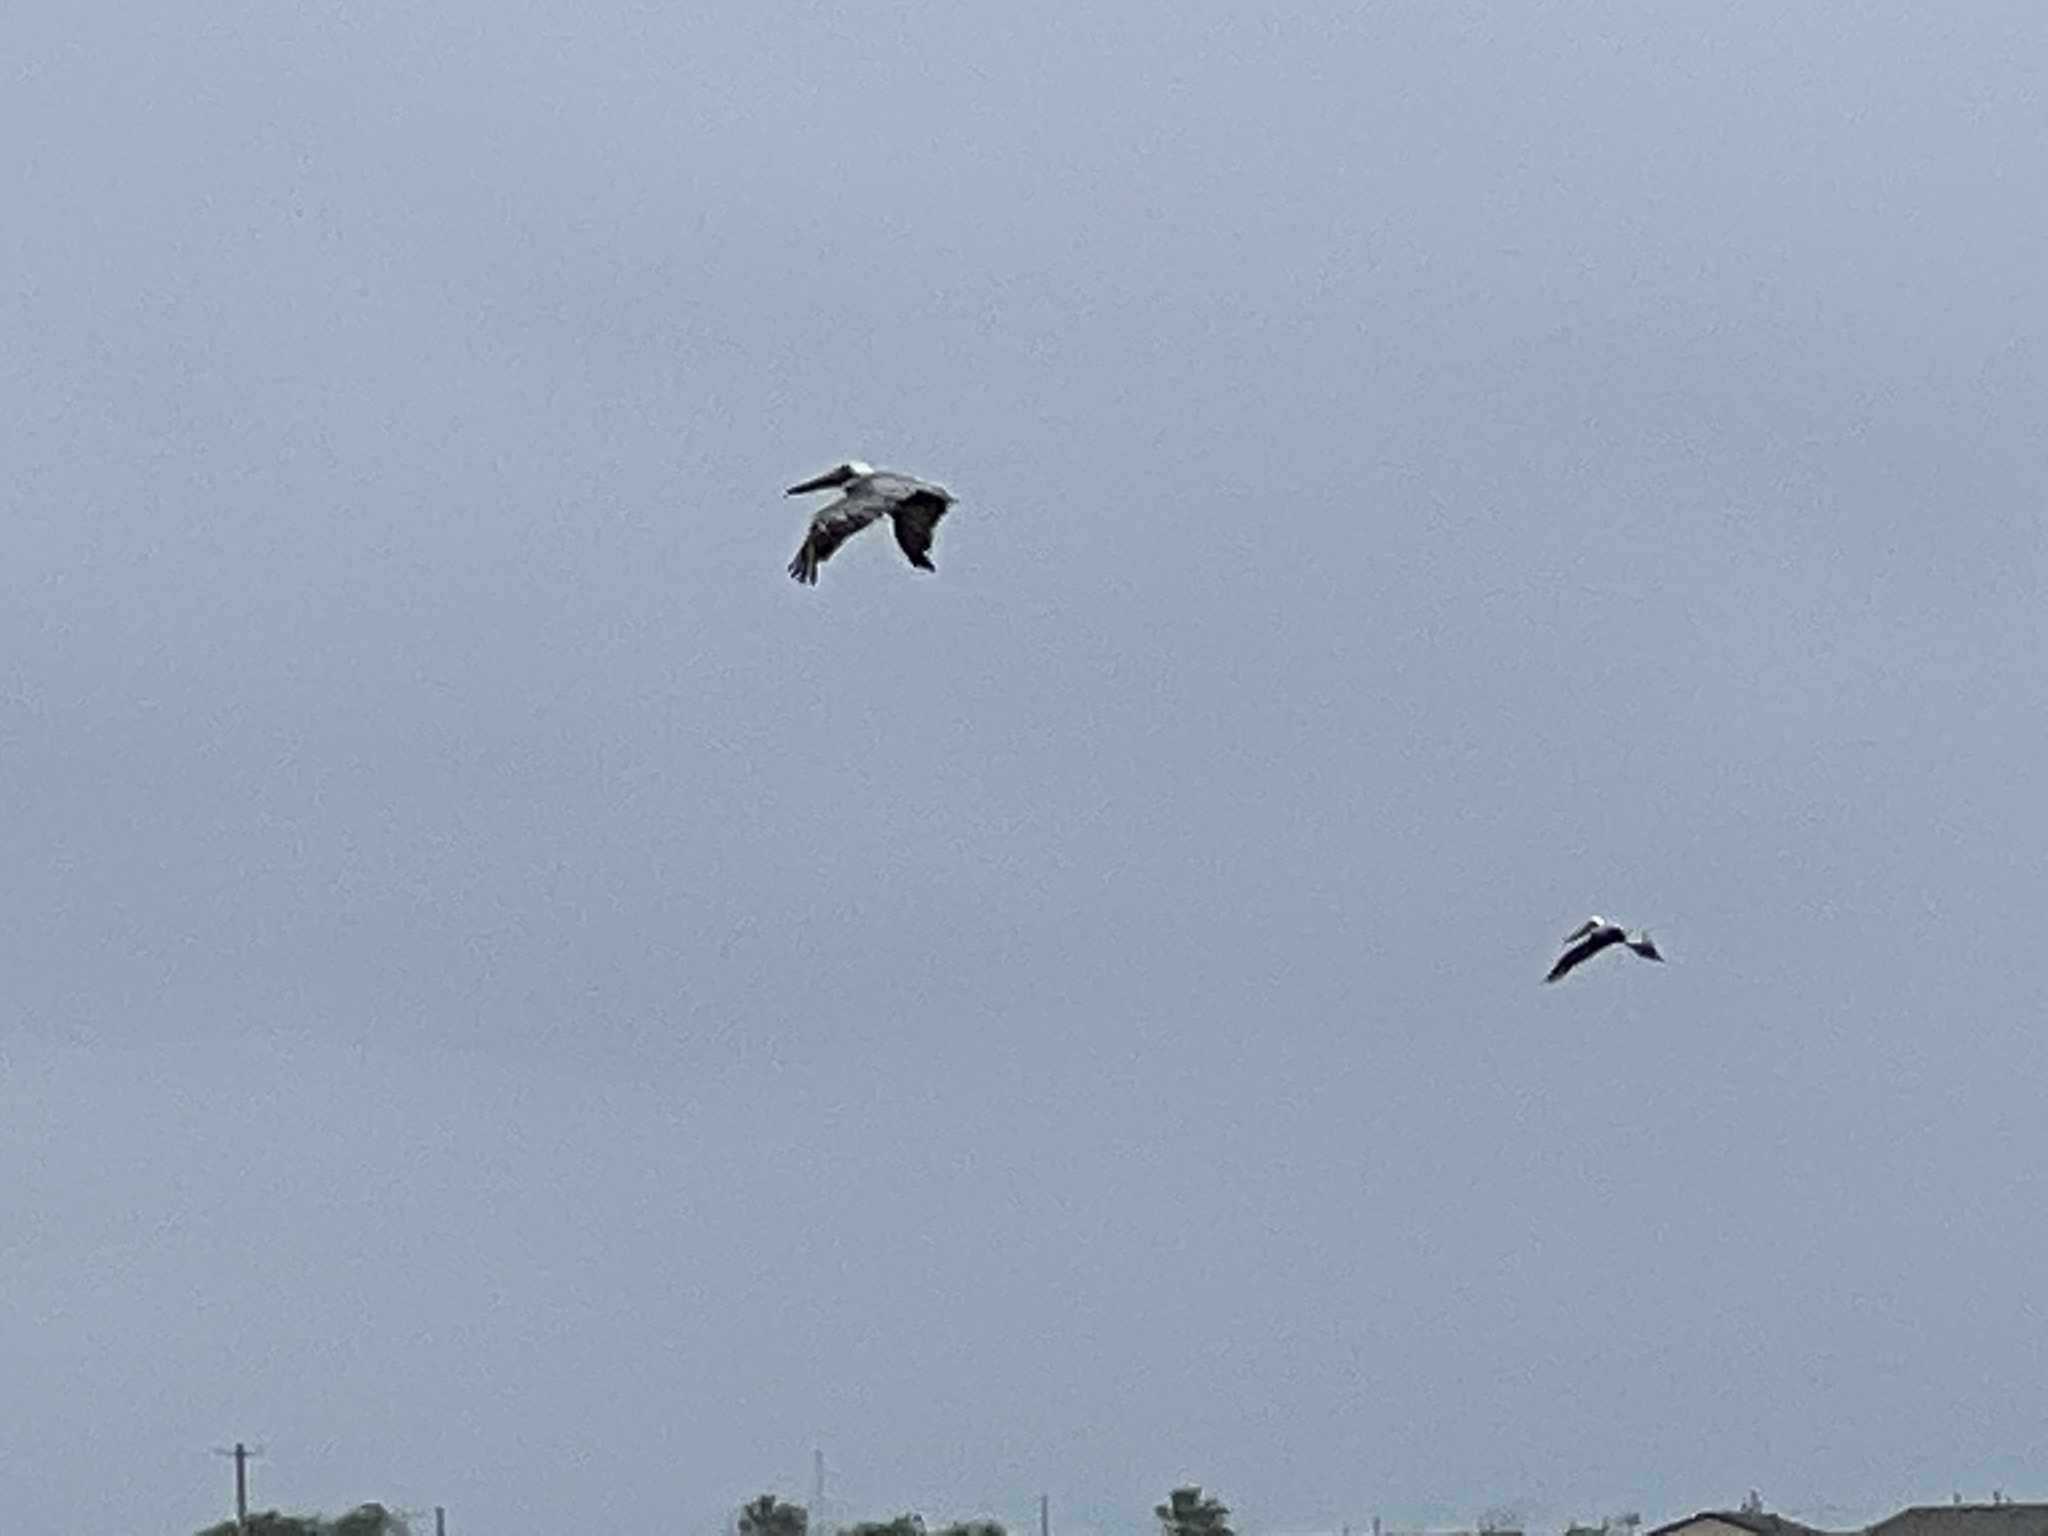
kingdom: Animalia
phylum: Chordata
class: Aves
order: Pelecaniformes
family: Pelecanidae
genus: Pelecanus
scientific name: Pelecanus occidentalis
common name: Brown pelican
